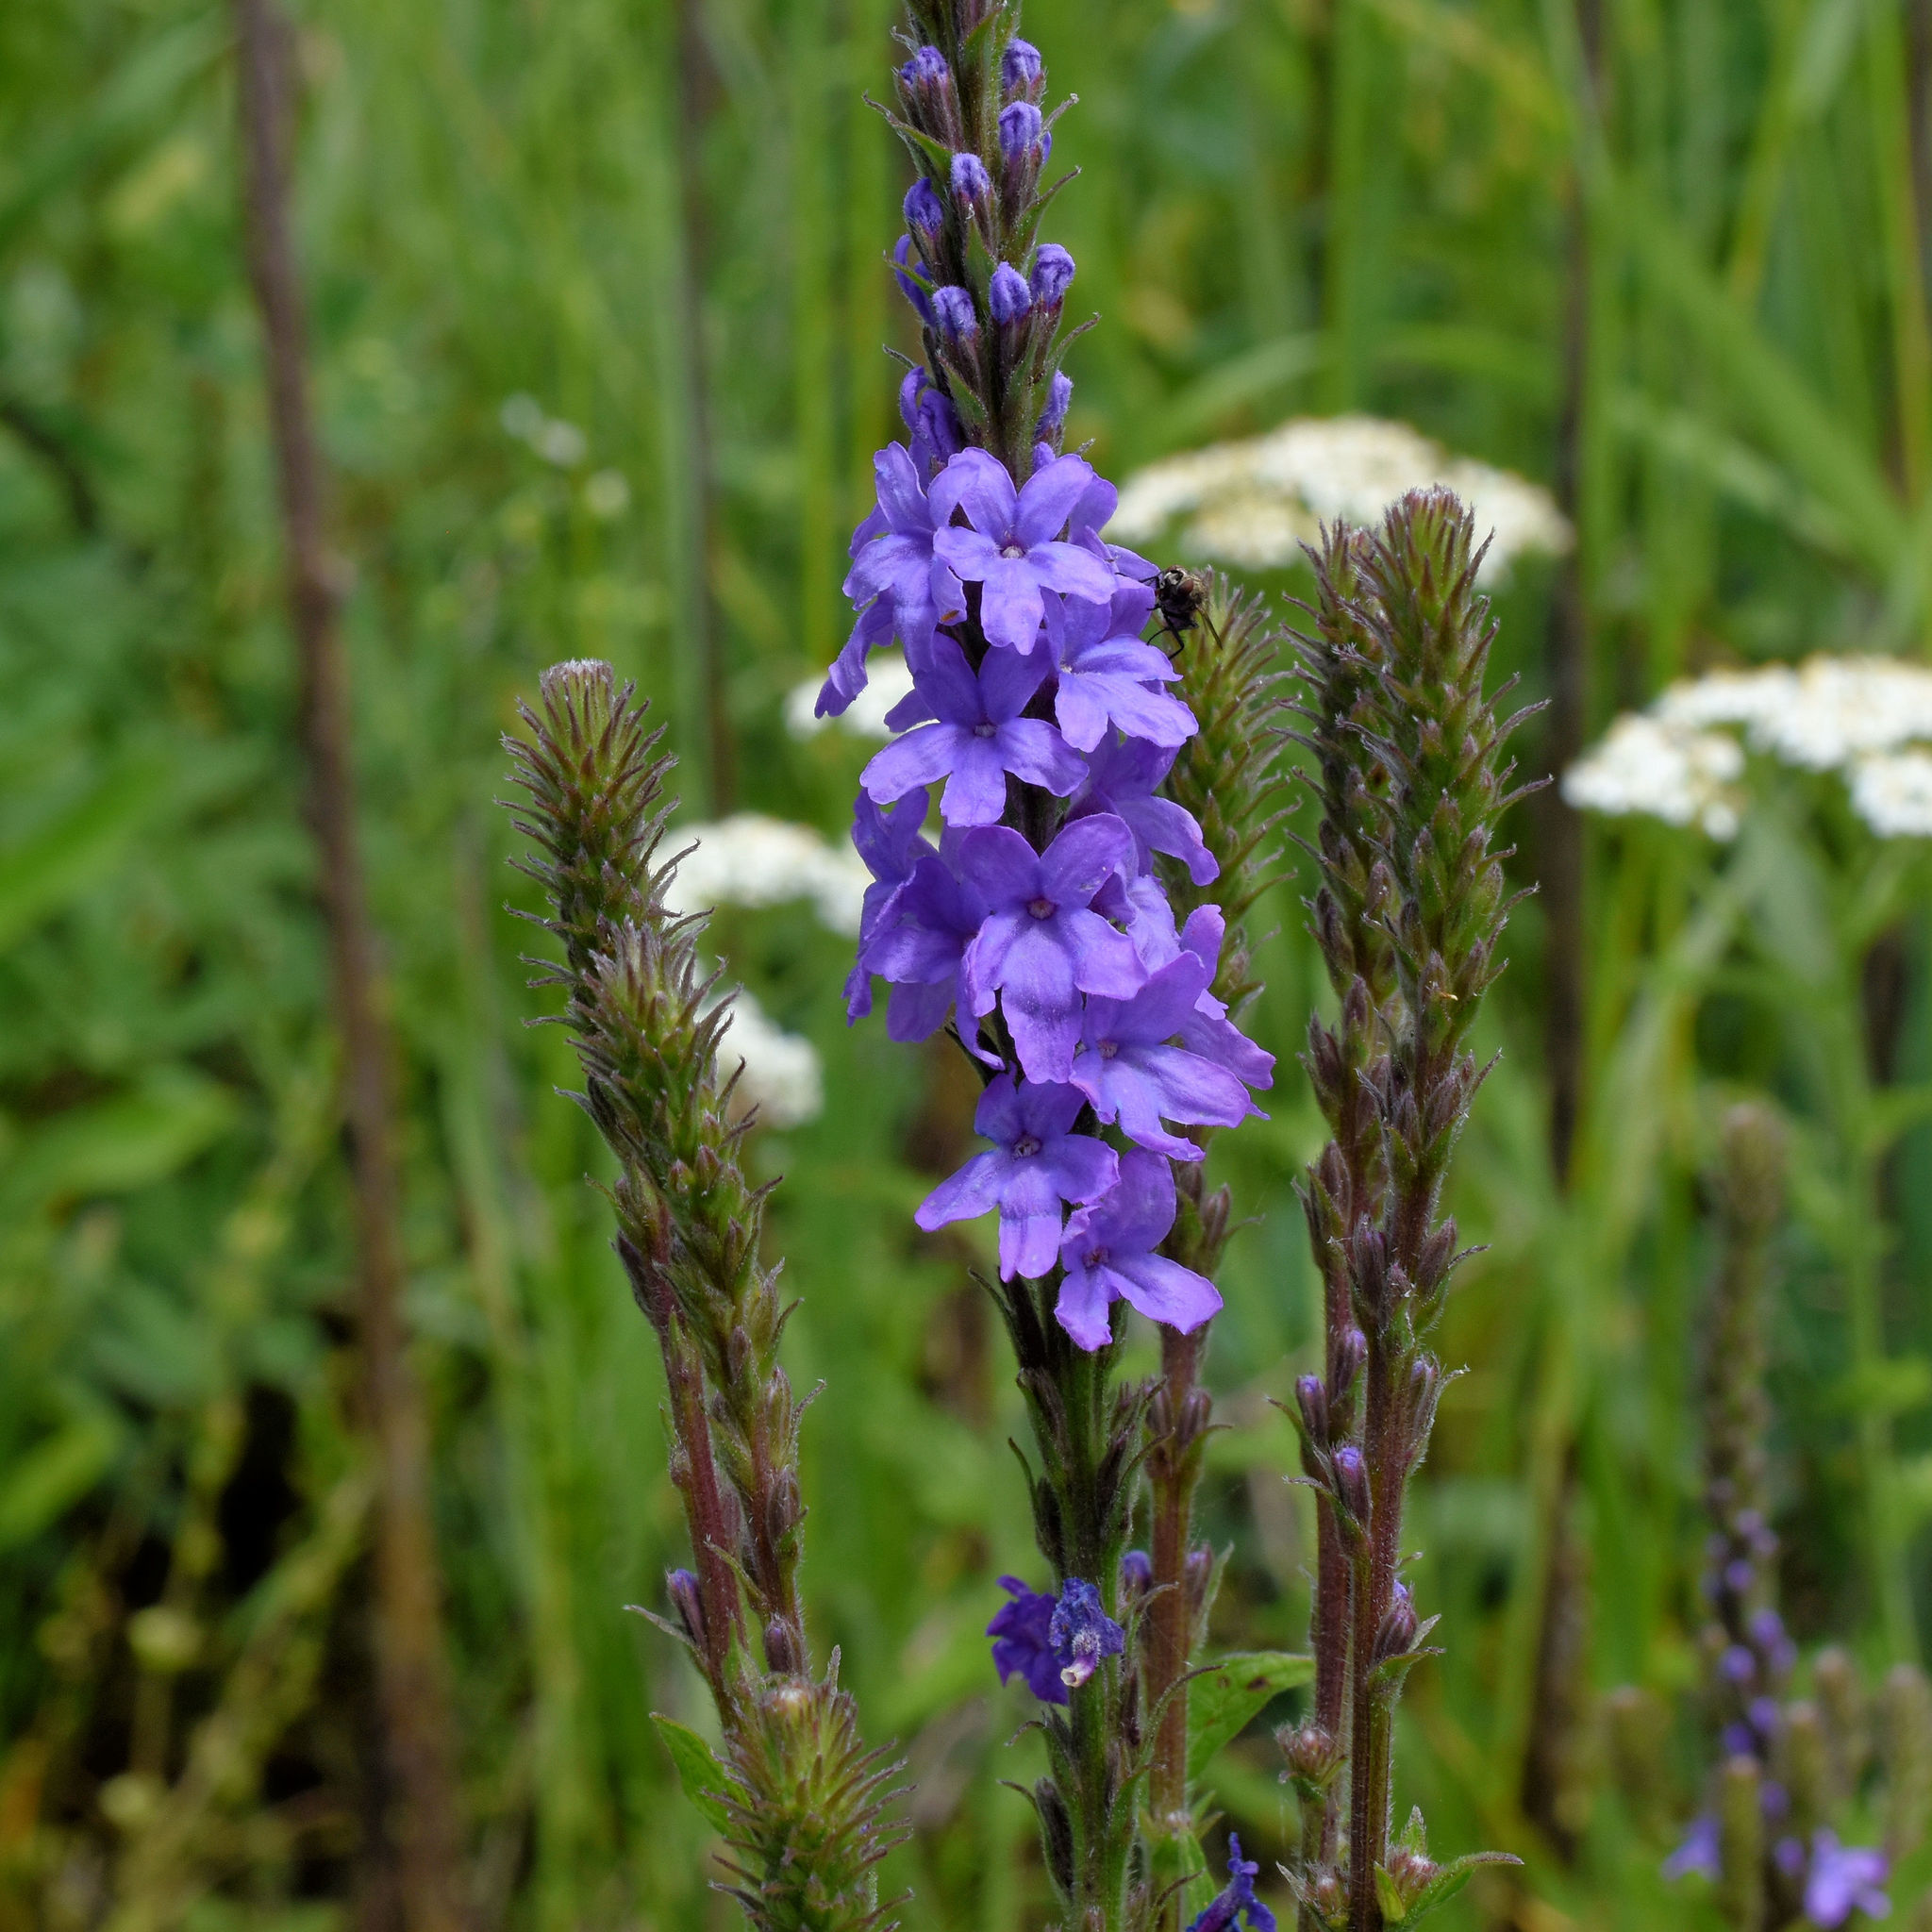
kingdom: Plantae
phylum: Tracheophyta
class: Magnoliopsida
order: Lamiales
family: Verbenaceae
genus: Verbena
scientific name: Verbena stricta
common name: Hoary vervain
